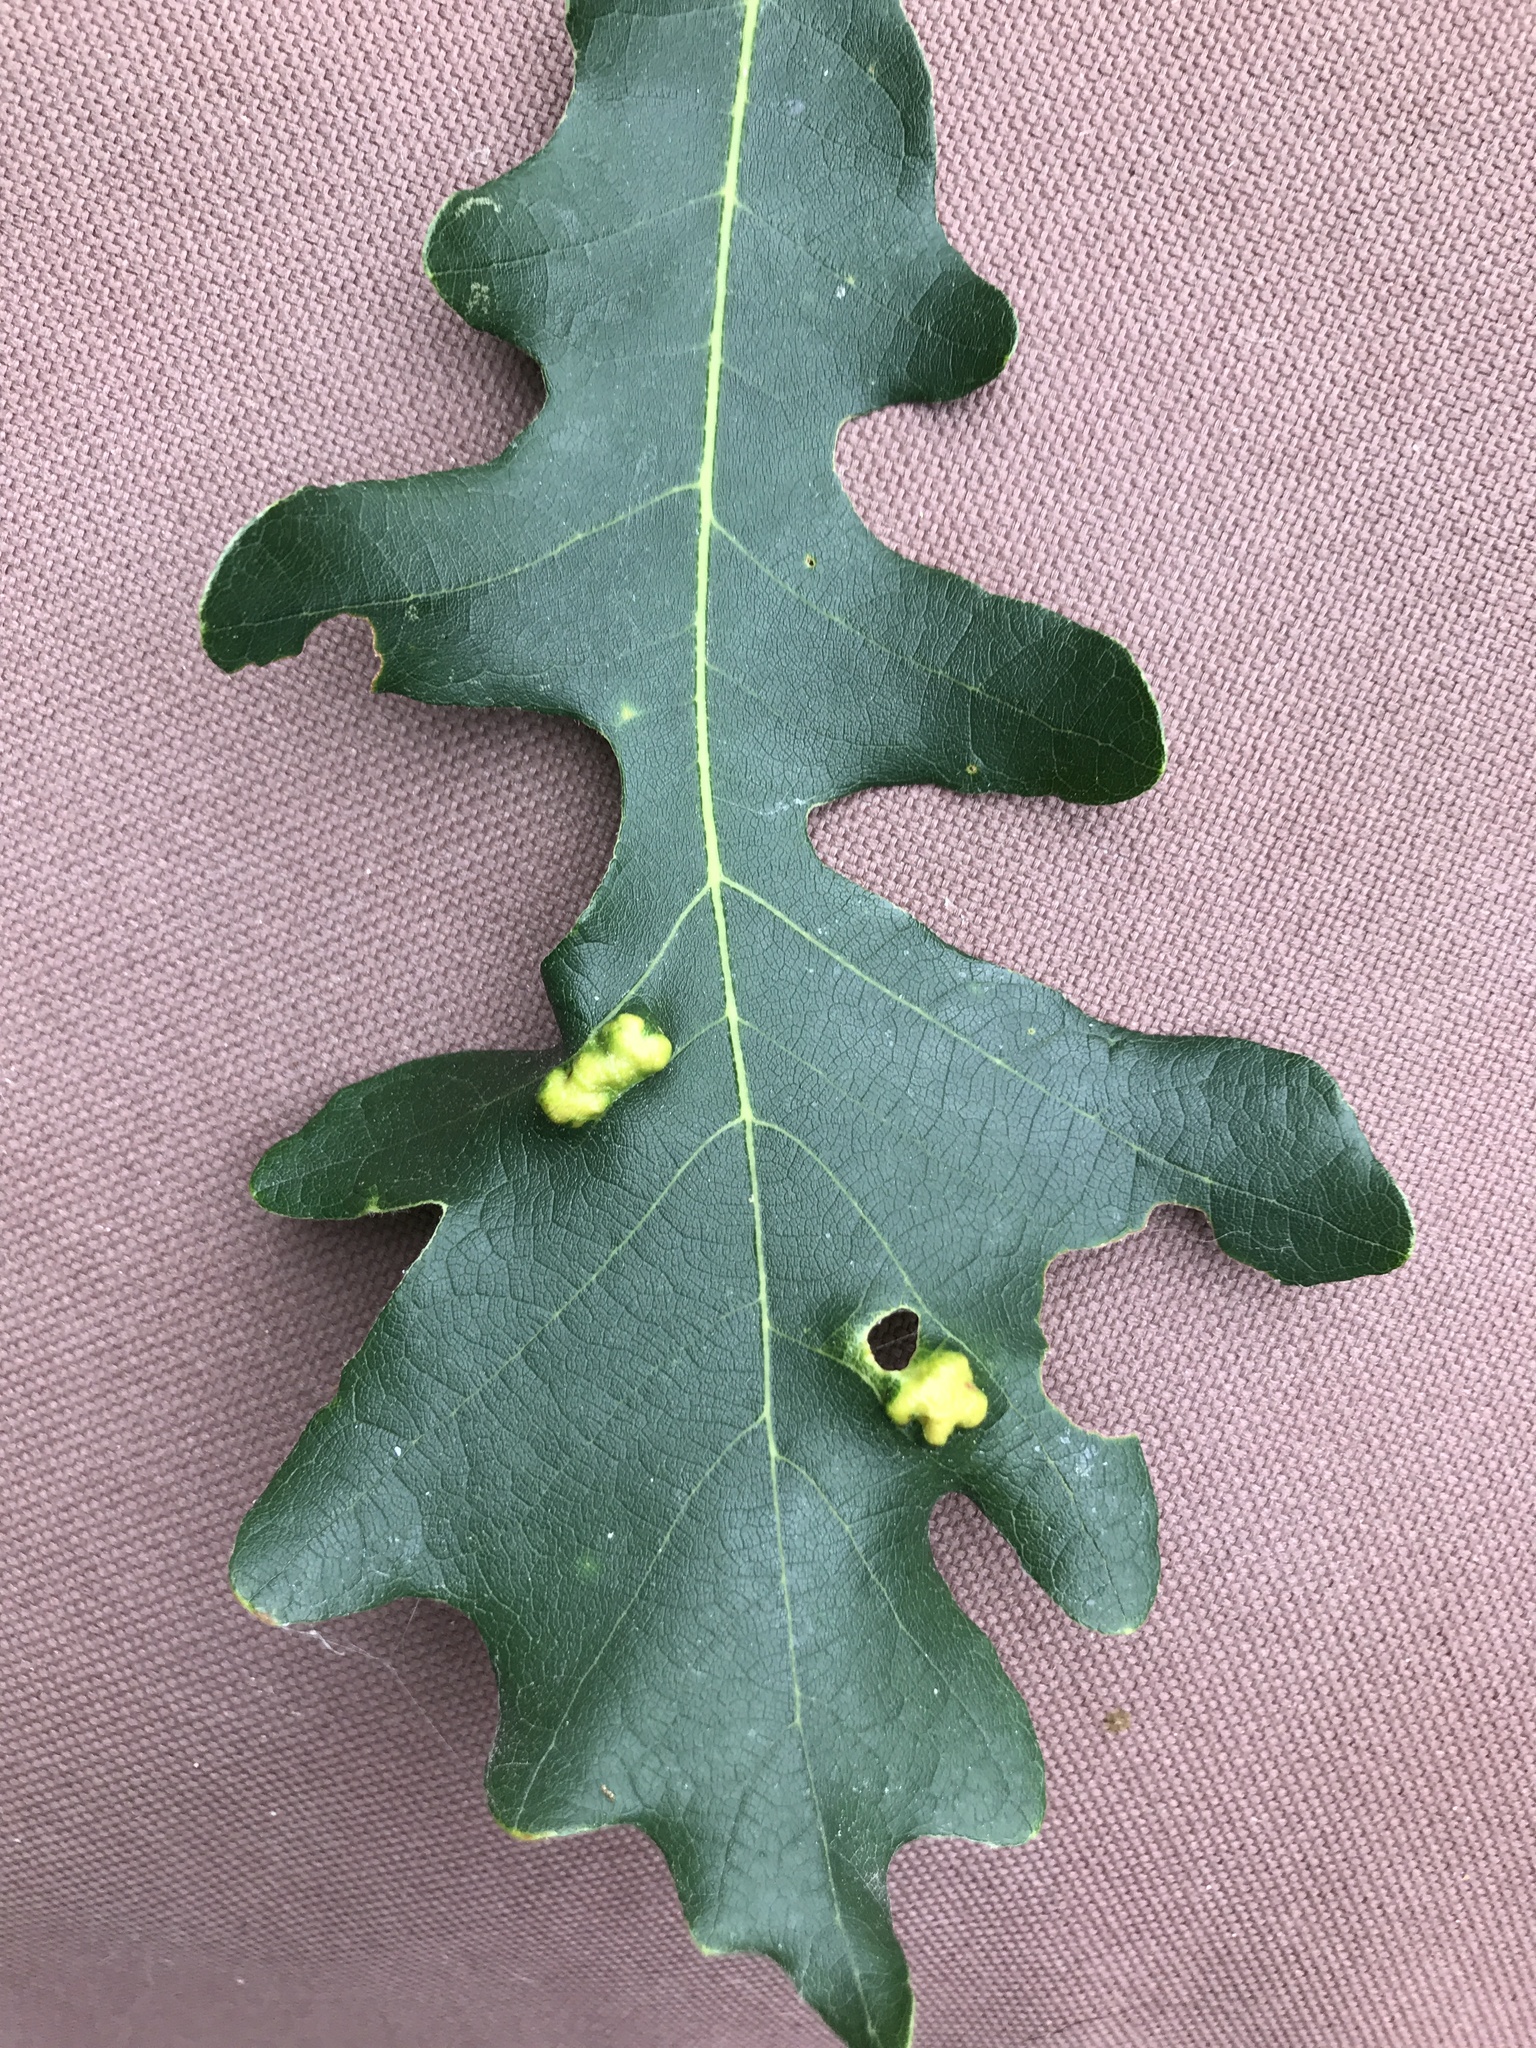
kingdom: Animalia
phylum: Arthropoda
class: Arachnida
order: Trombidiformes
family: Eriophyidae
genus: Aceria
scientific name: Aceria quercina
